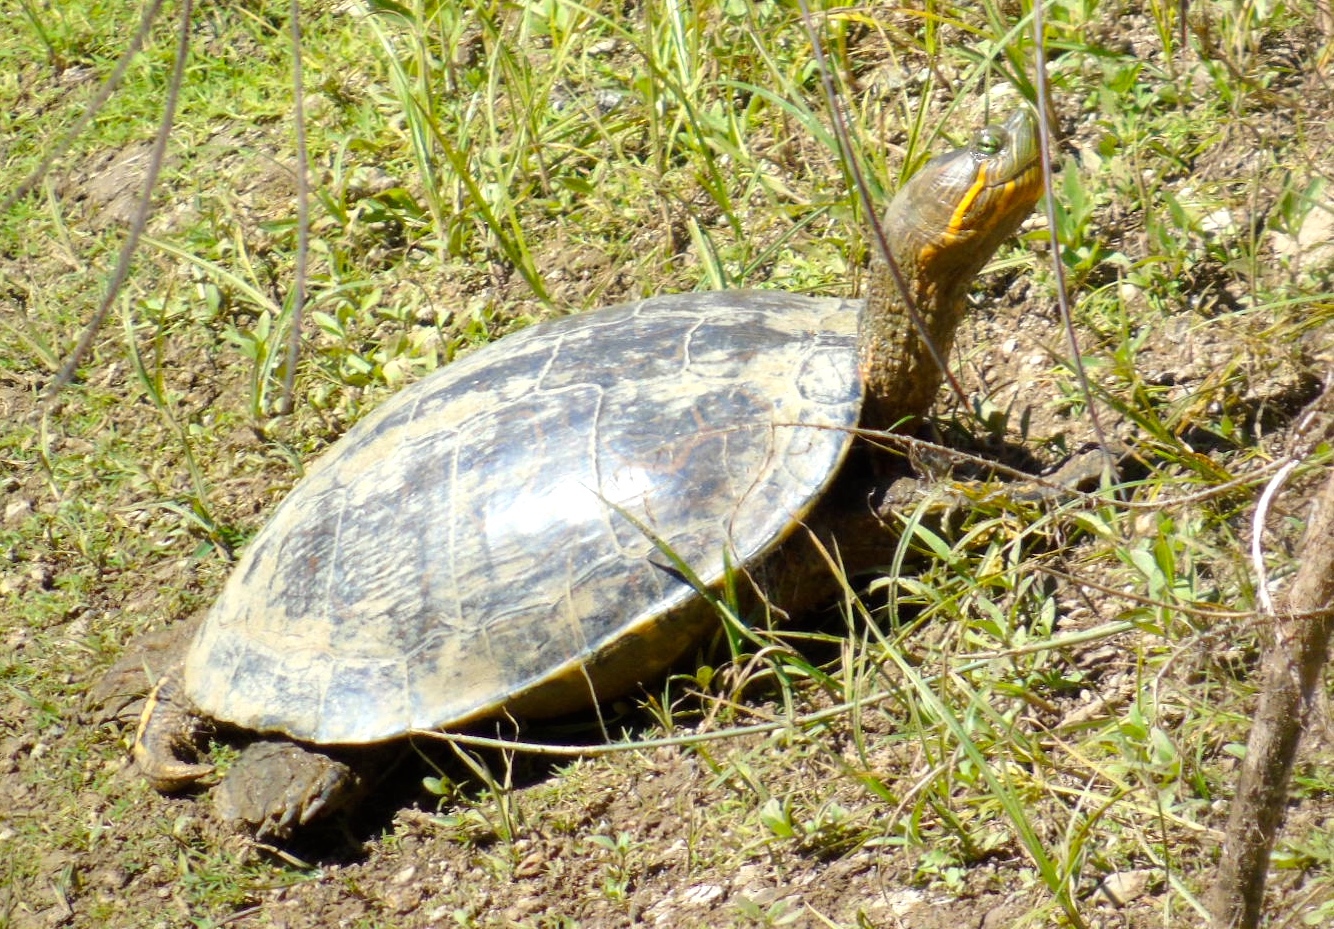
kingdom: Animalia
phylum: Chordata
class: Testudines
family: Emydidae
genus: Trachemys
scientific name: Trachemys ornata
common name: Ornate slider
